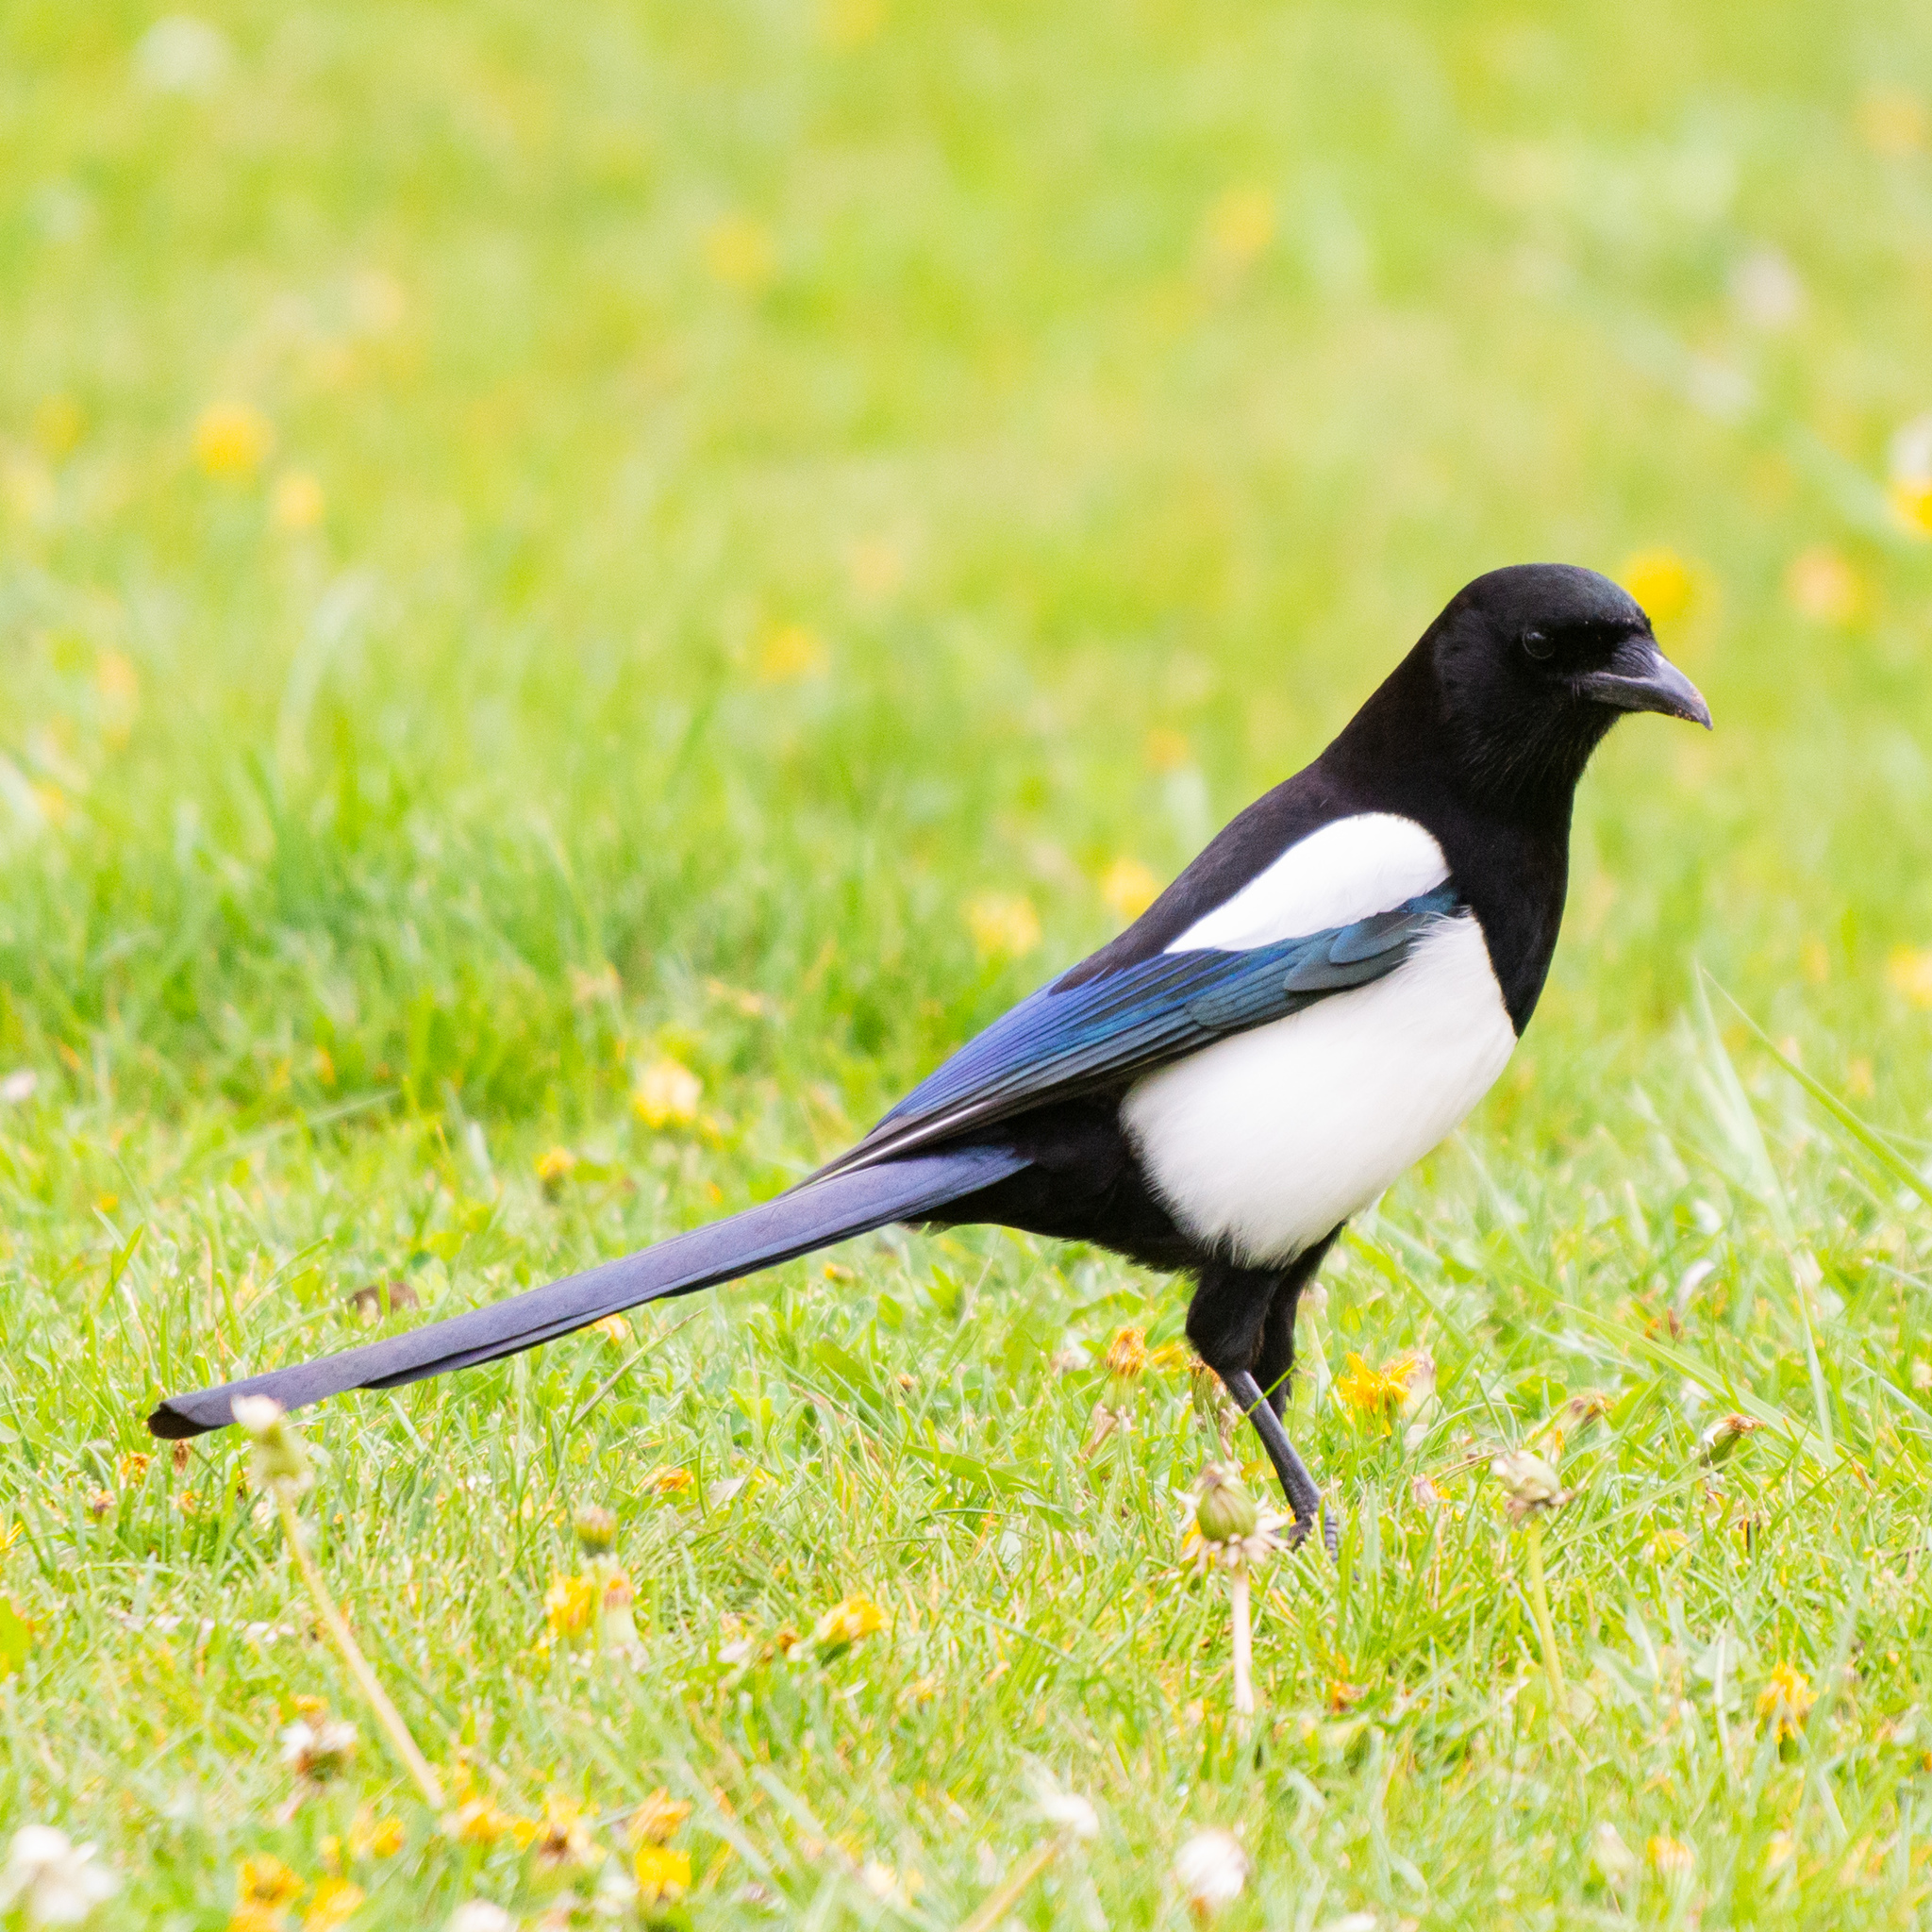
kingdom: Animalia
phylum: Chordata
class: Aves
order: Passeriformes
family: Corvidae
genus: Pica
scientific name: Pica pica
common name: Eurasian magpie
